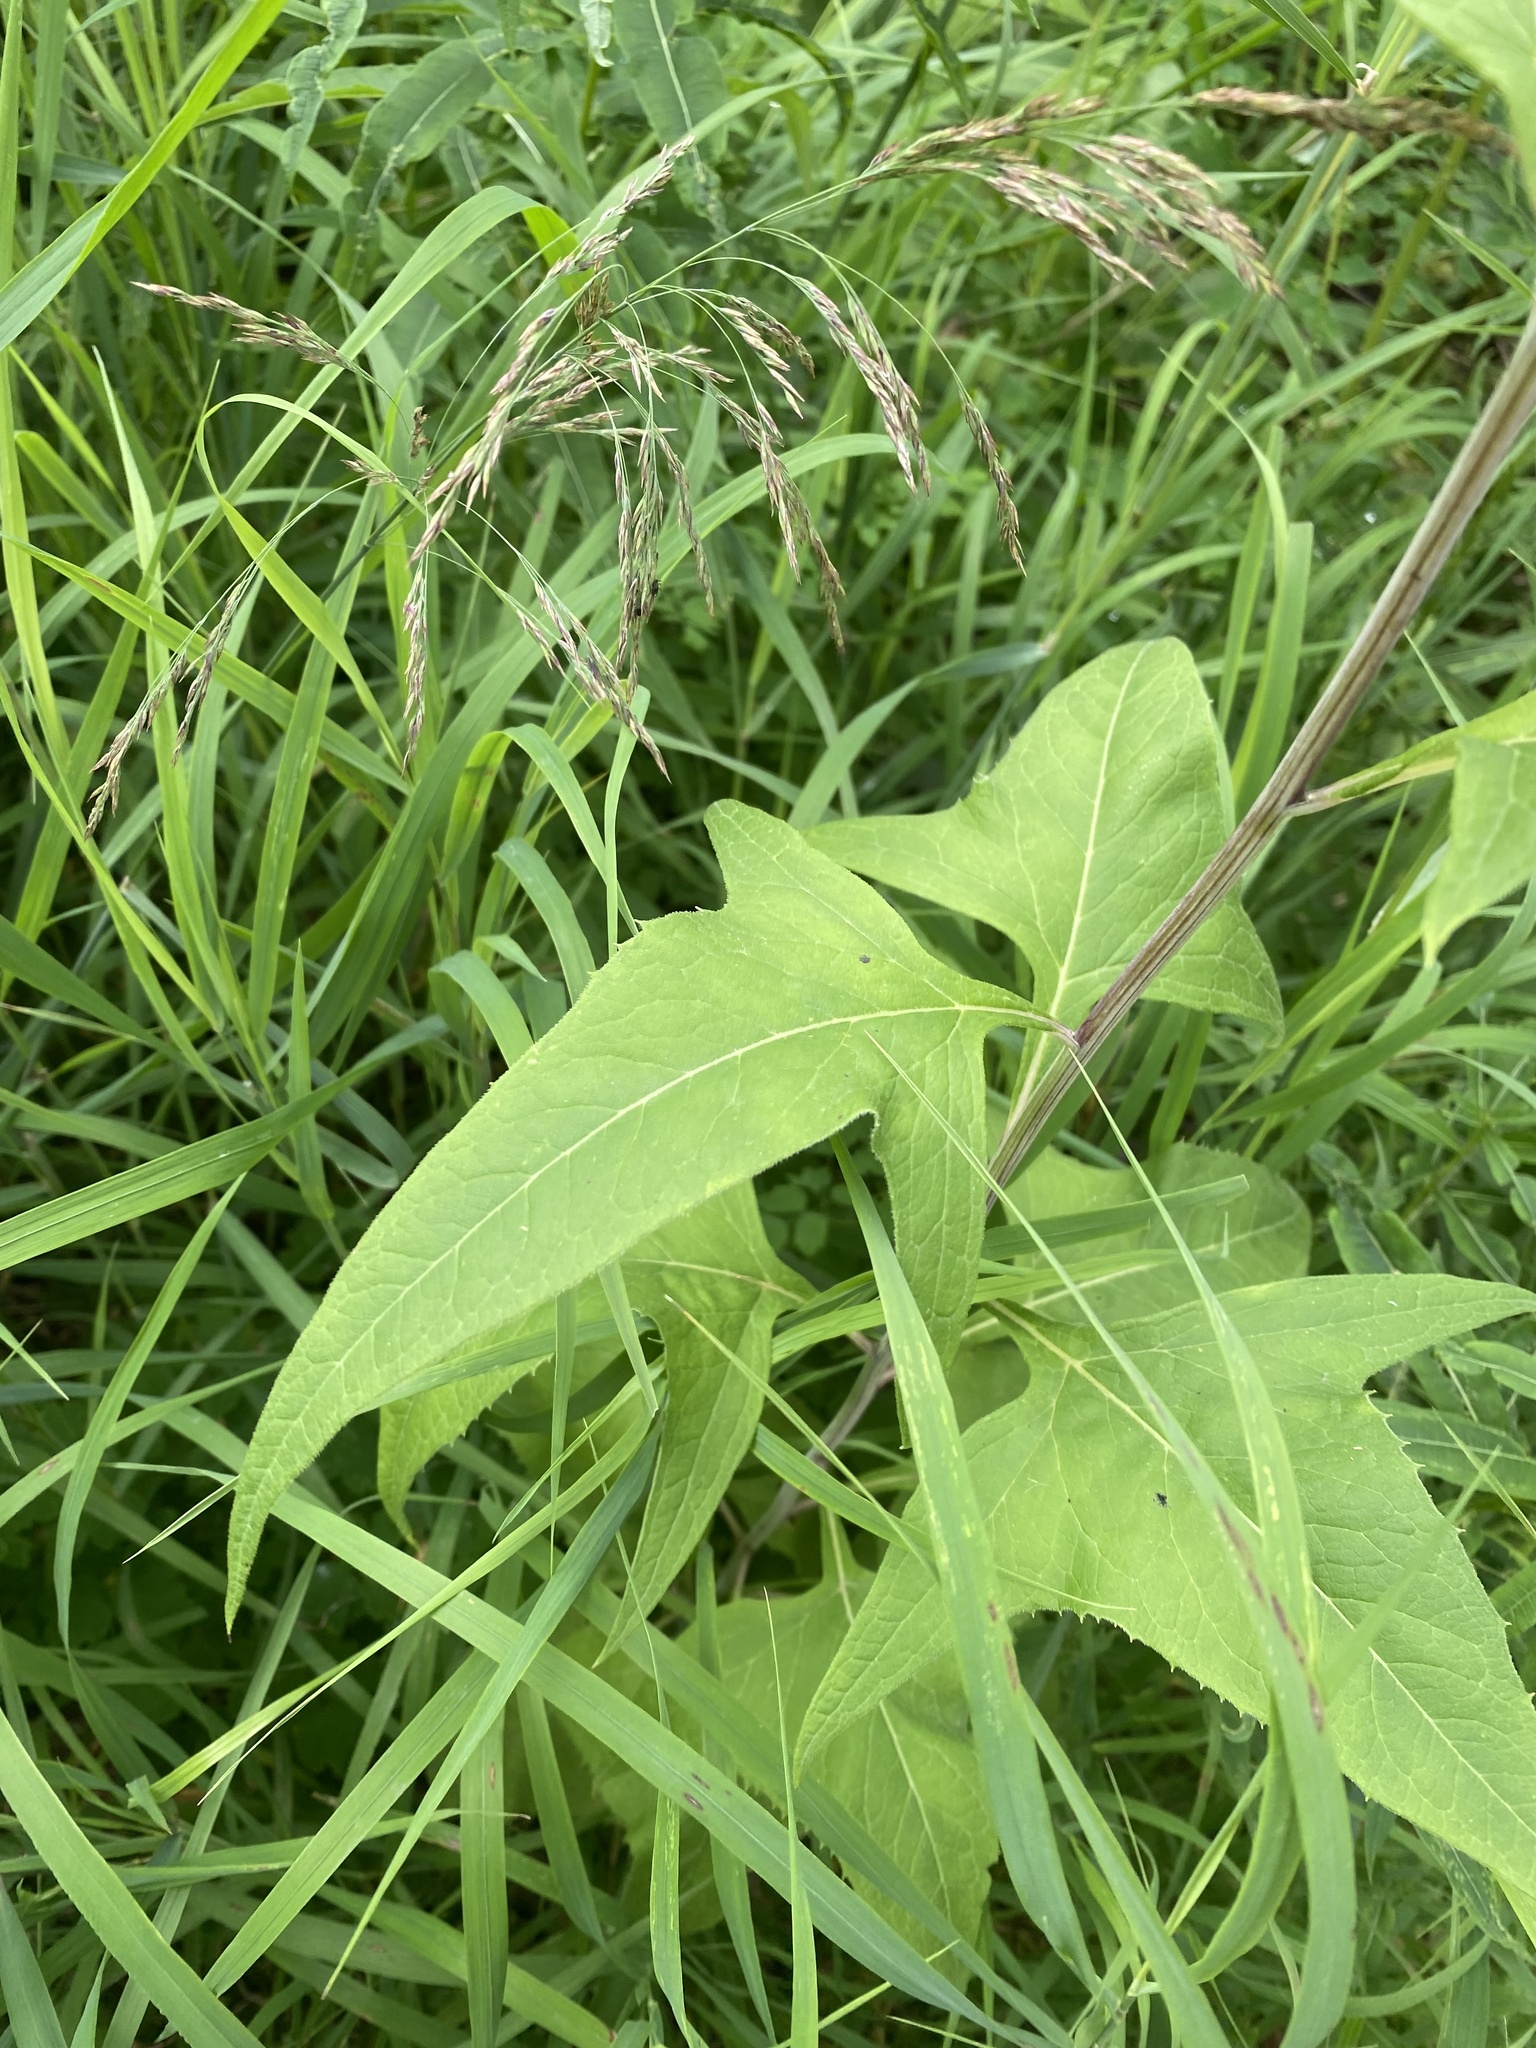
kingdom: Plantae
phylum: Tracheophyta
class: Magnoliopsida
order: Asterales
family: Asteraceae
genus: Parasenecio
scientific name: Parasenecio hastatus
